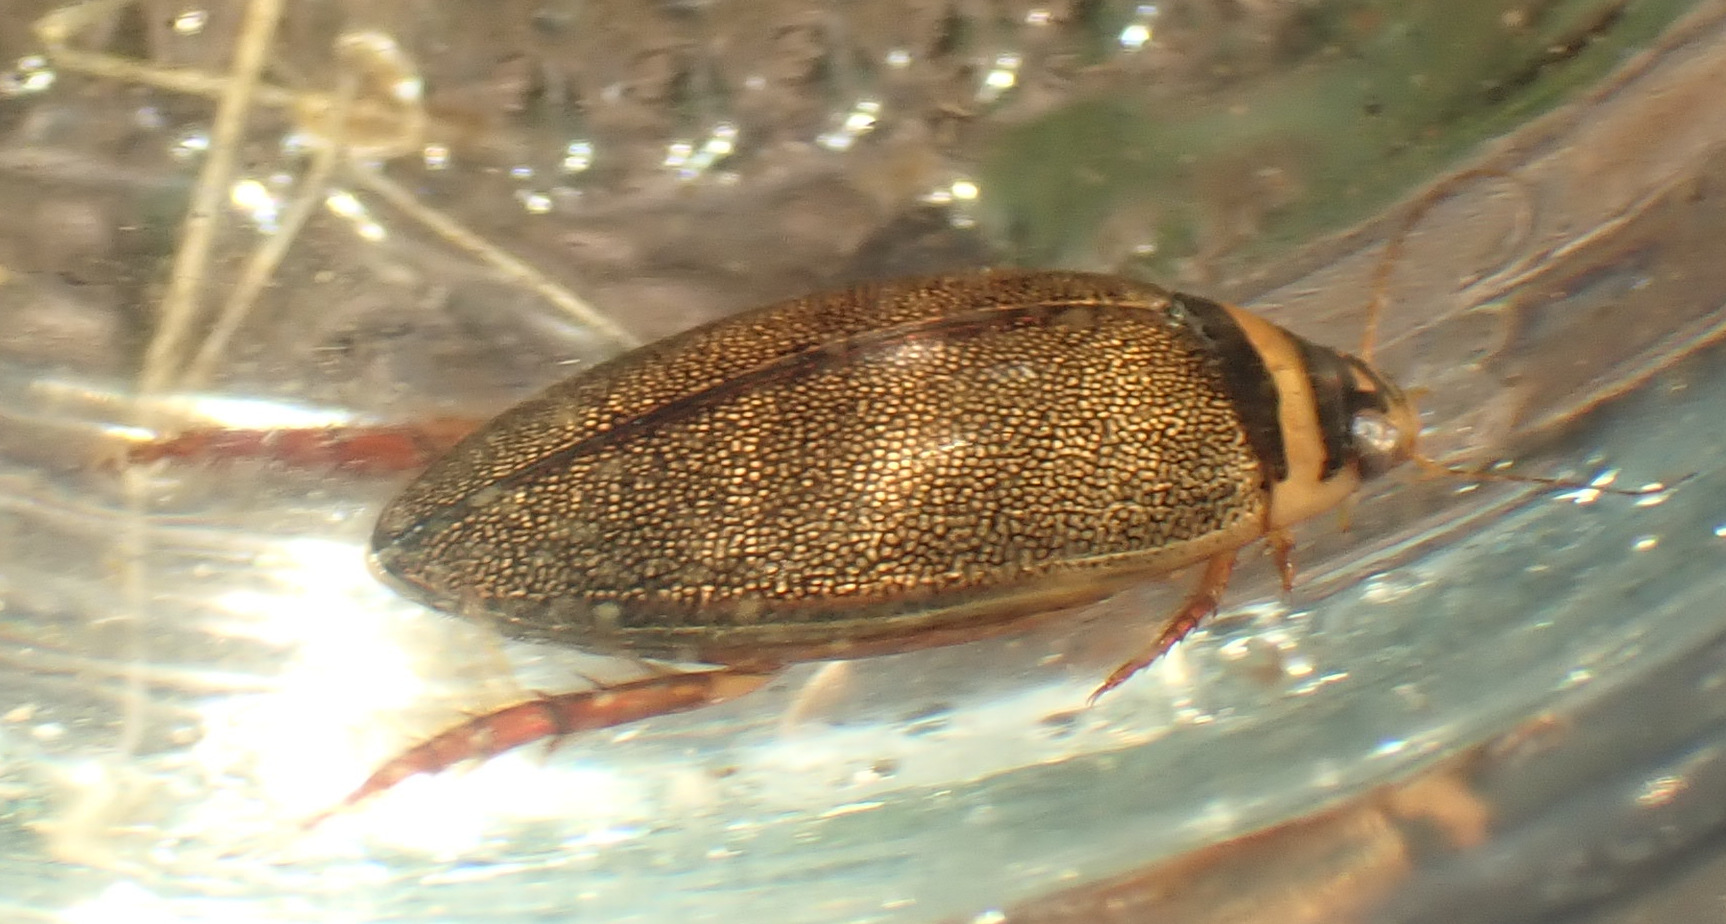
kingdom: Animalia
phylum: Arthropoda
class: Insecta
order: Coleoptera
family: Dytiscidae
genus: Graphoderus
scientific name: Graphoderus cinereus
